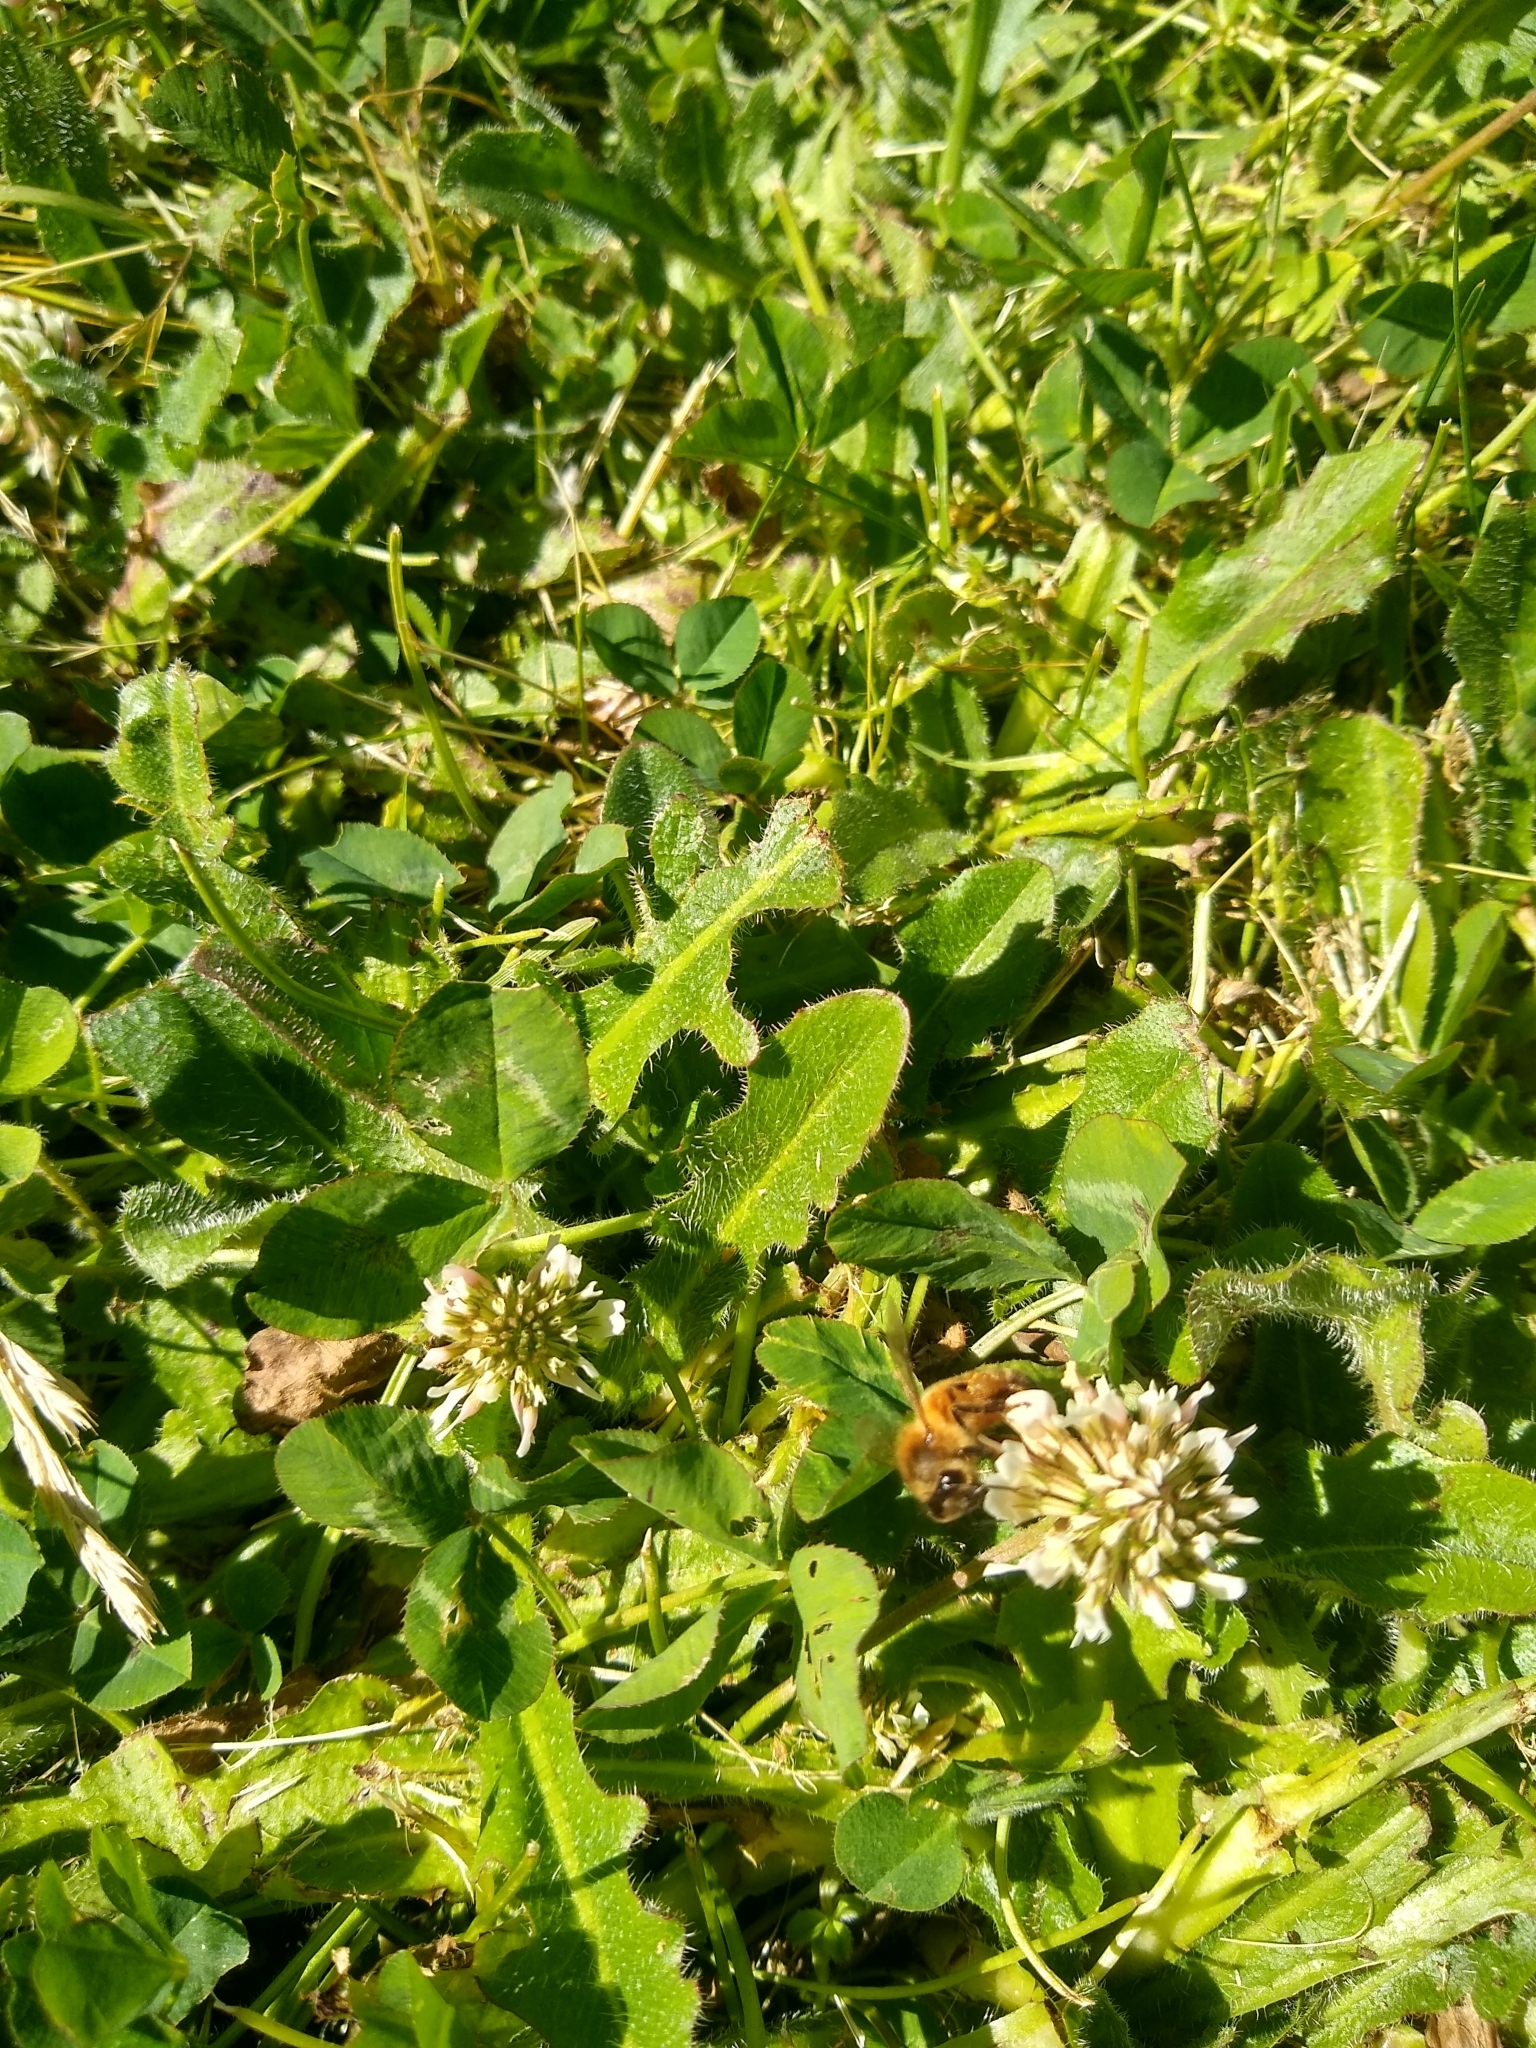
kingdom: Animalia
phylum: Arthropoda
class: Insecta
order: Hymenoptera
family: Apidae
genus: Apis
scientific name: Apis mellifera
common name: Honey bee
